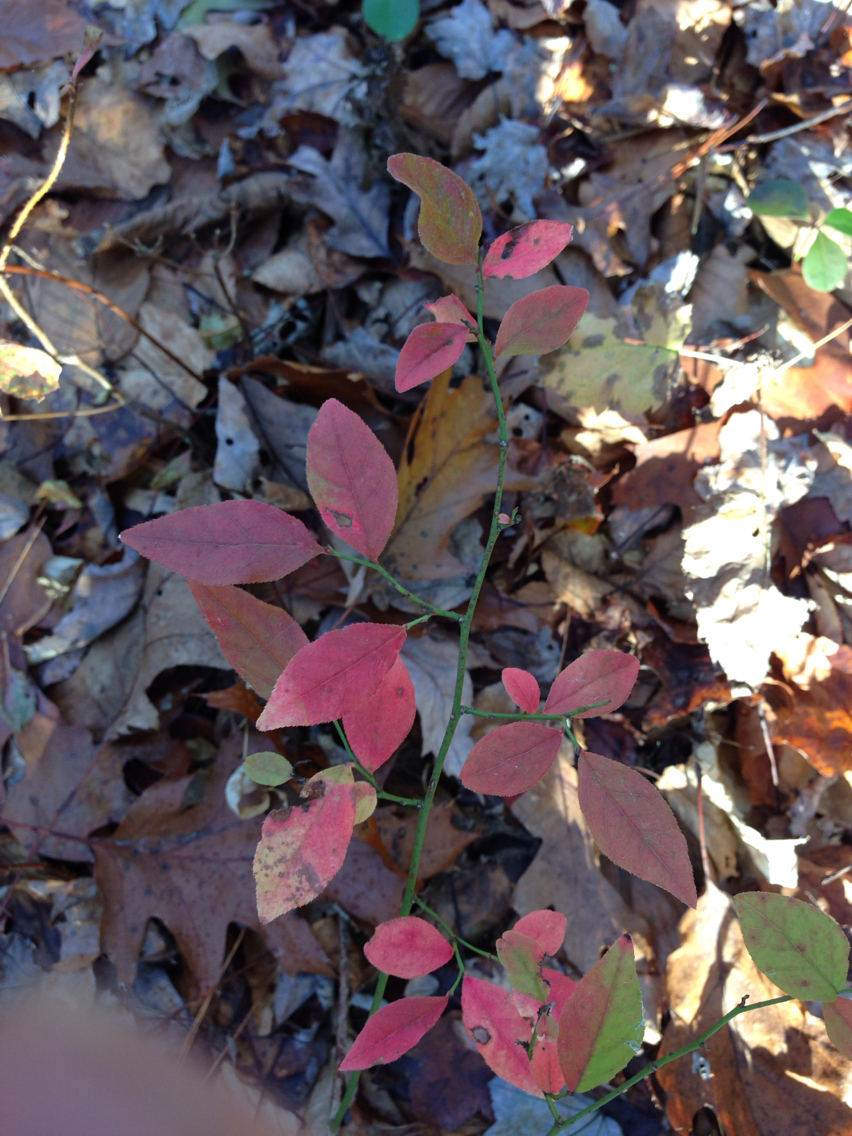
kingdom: Plantae
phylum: Tracheophyta
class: Magnoliopsida
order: Ericales
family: Ericaceae
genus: Vaccinium
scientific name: Vaccinium angustifolium
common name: Early lowbush blueberry
